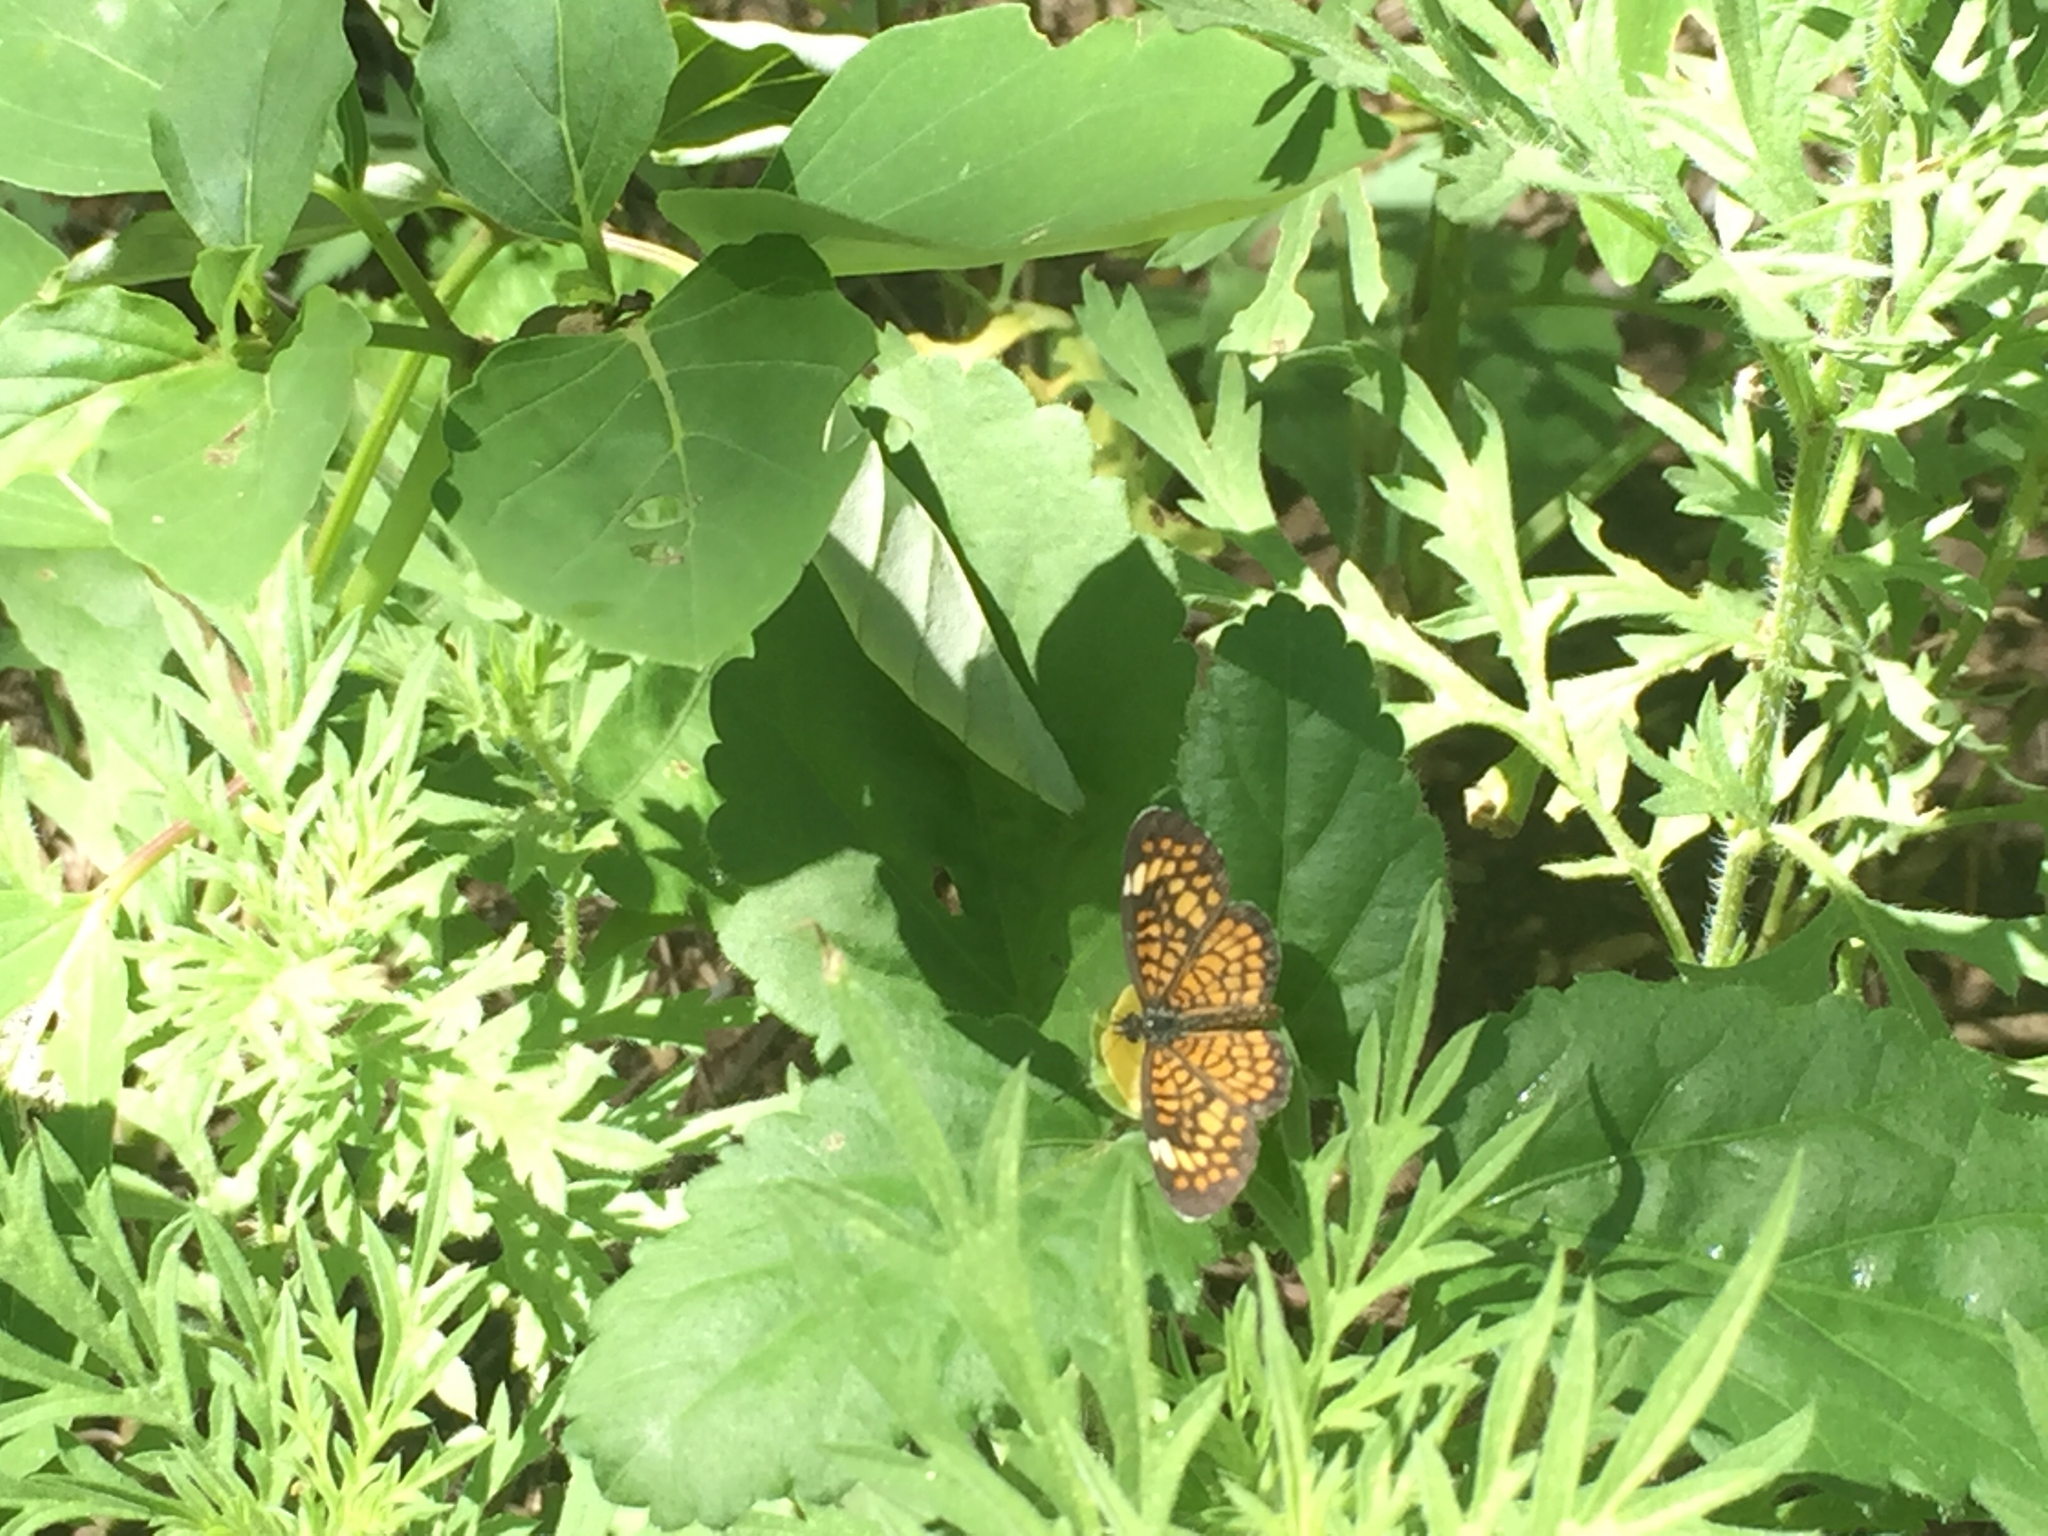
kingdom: Animalia
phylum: Arthropoda
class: Insecta
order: Lepidoptera
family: Nymphalidae
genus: Dymasia
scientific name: Dymasia dymas
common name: Tiny checkerspot
